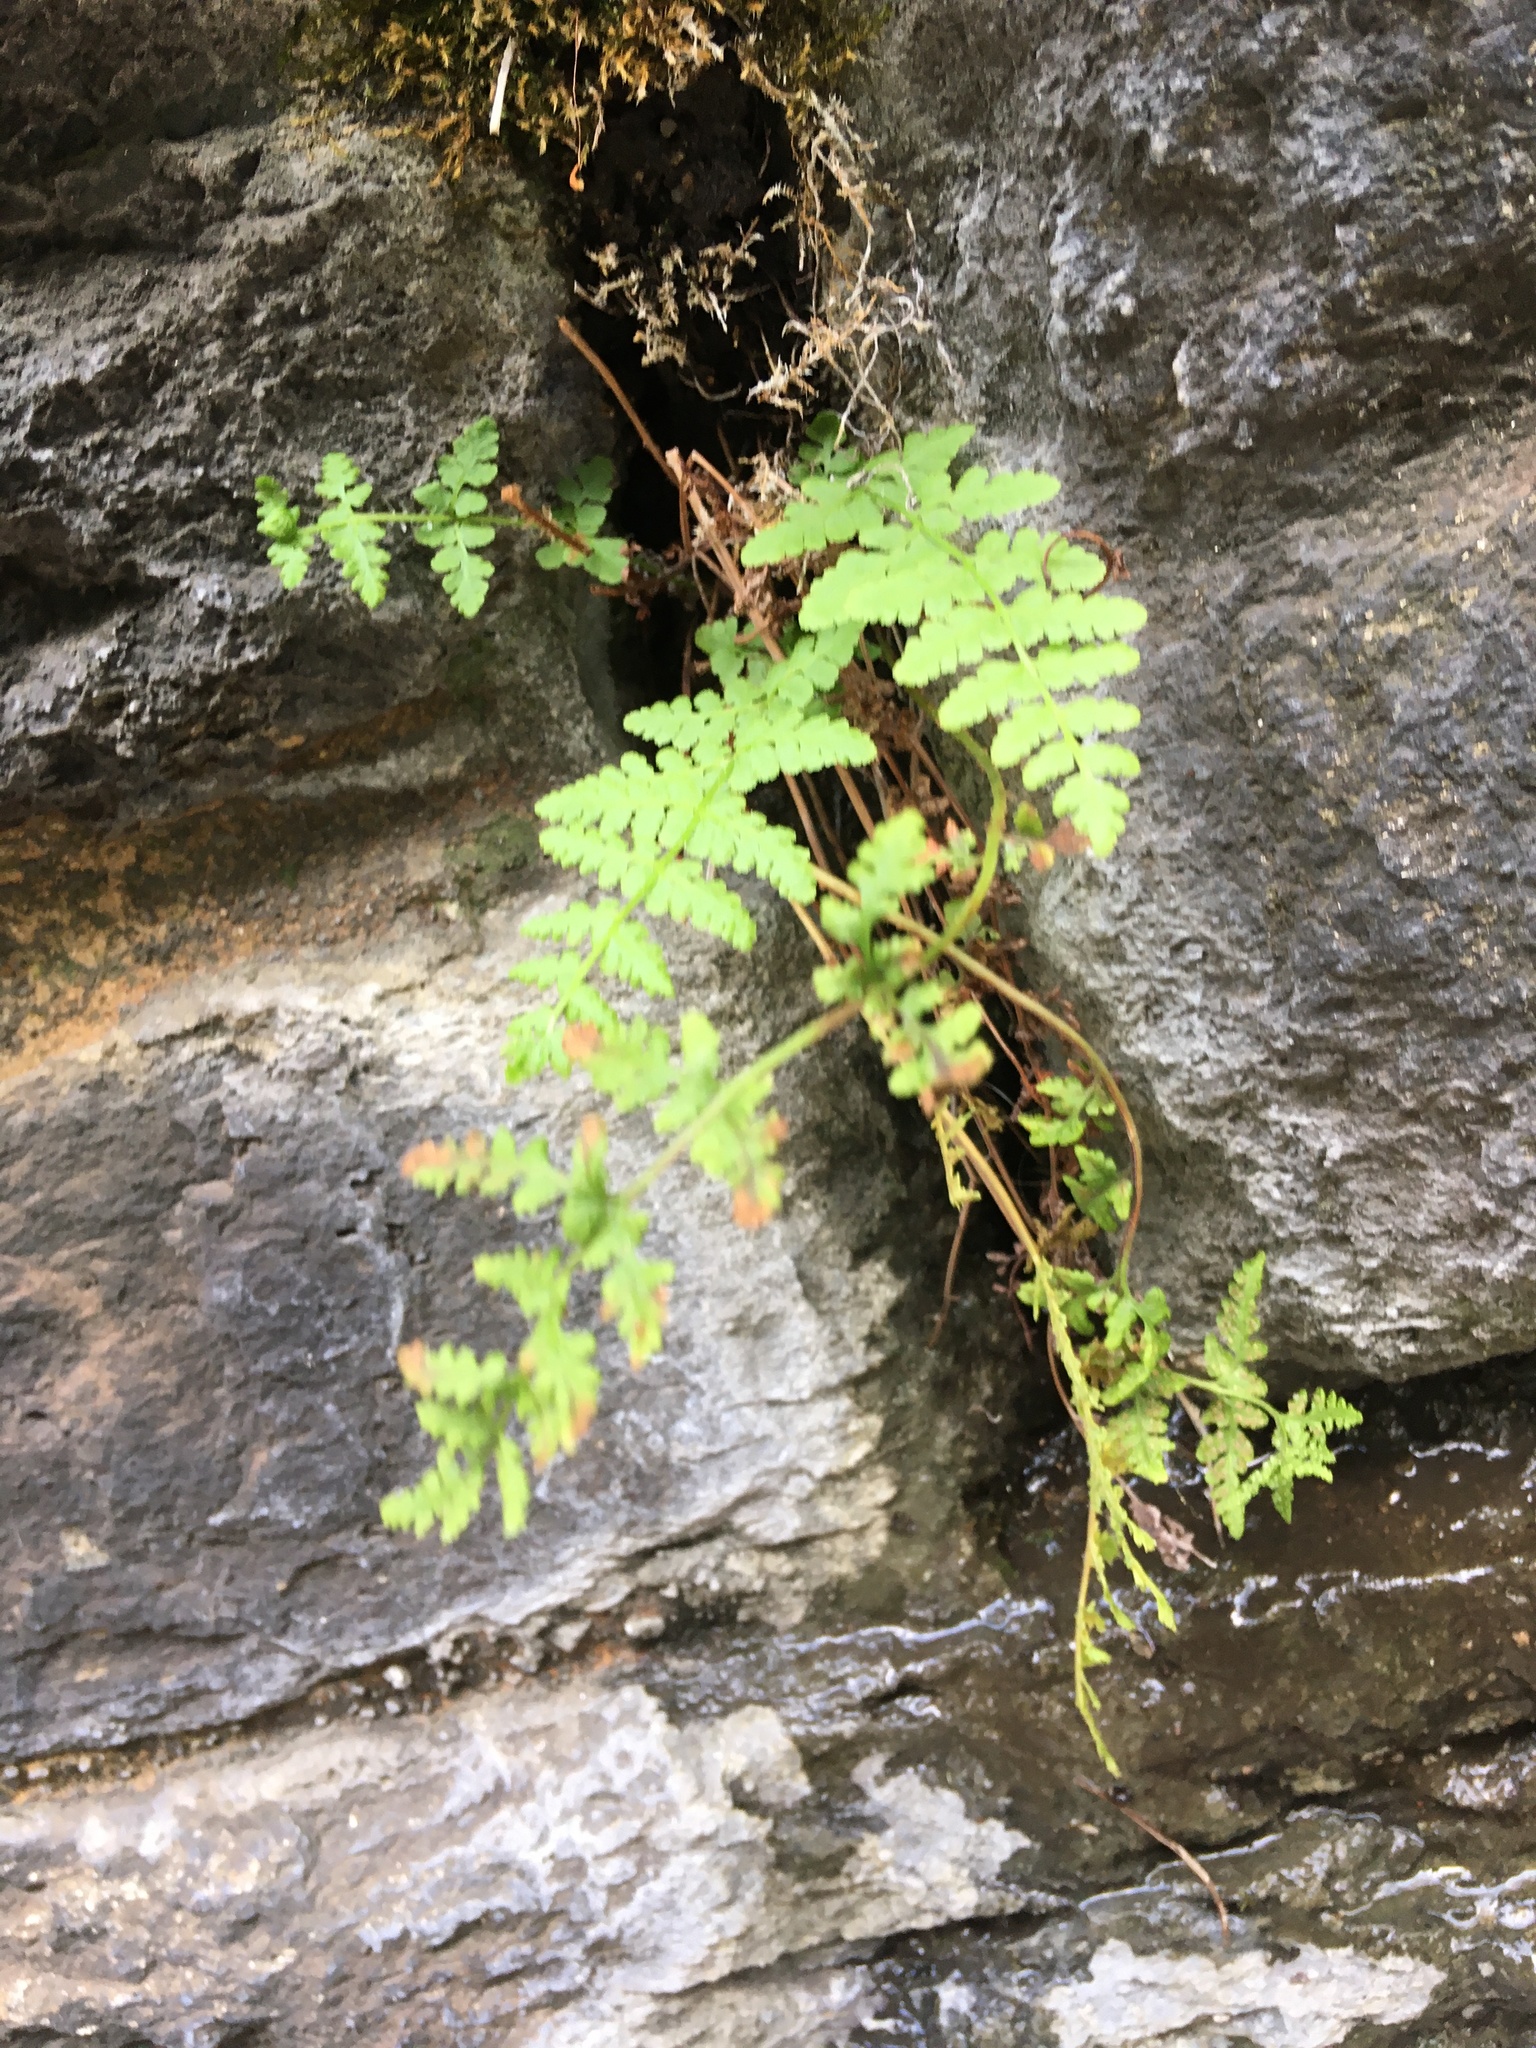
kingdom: Plantae
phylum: Tracheophyta
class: Polypodiopsida
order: Polypodiales
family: Woodsiaceae
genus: Physematium
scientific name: Physematium obtusum
